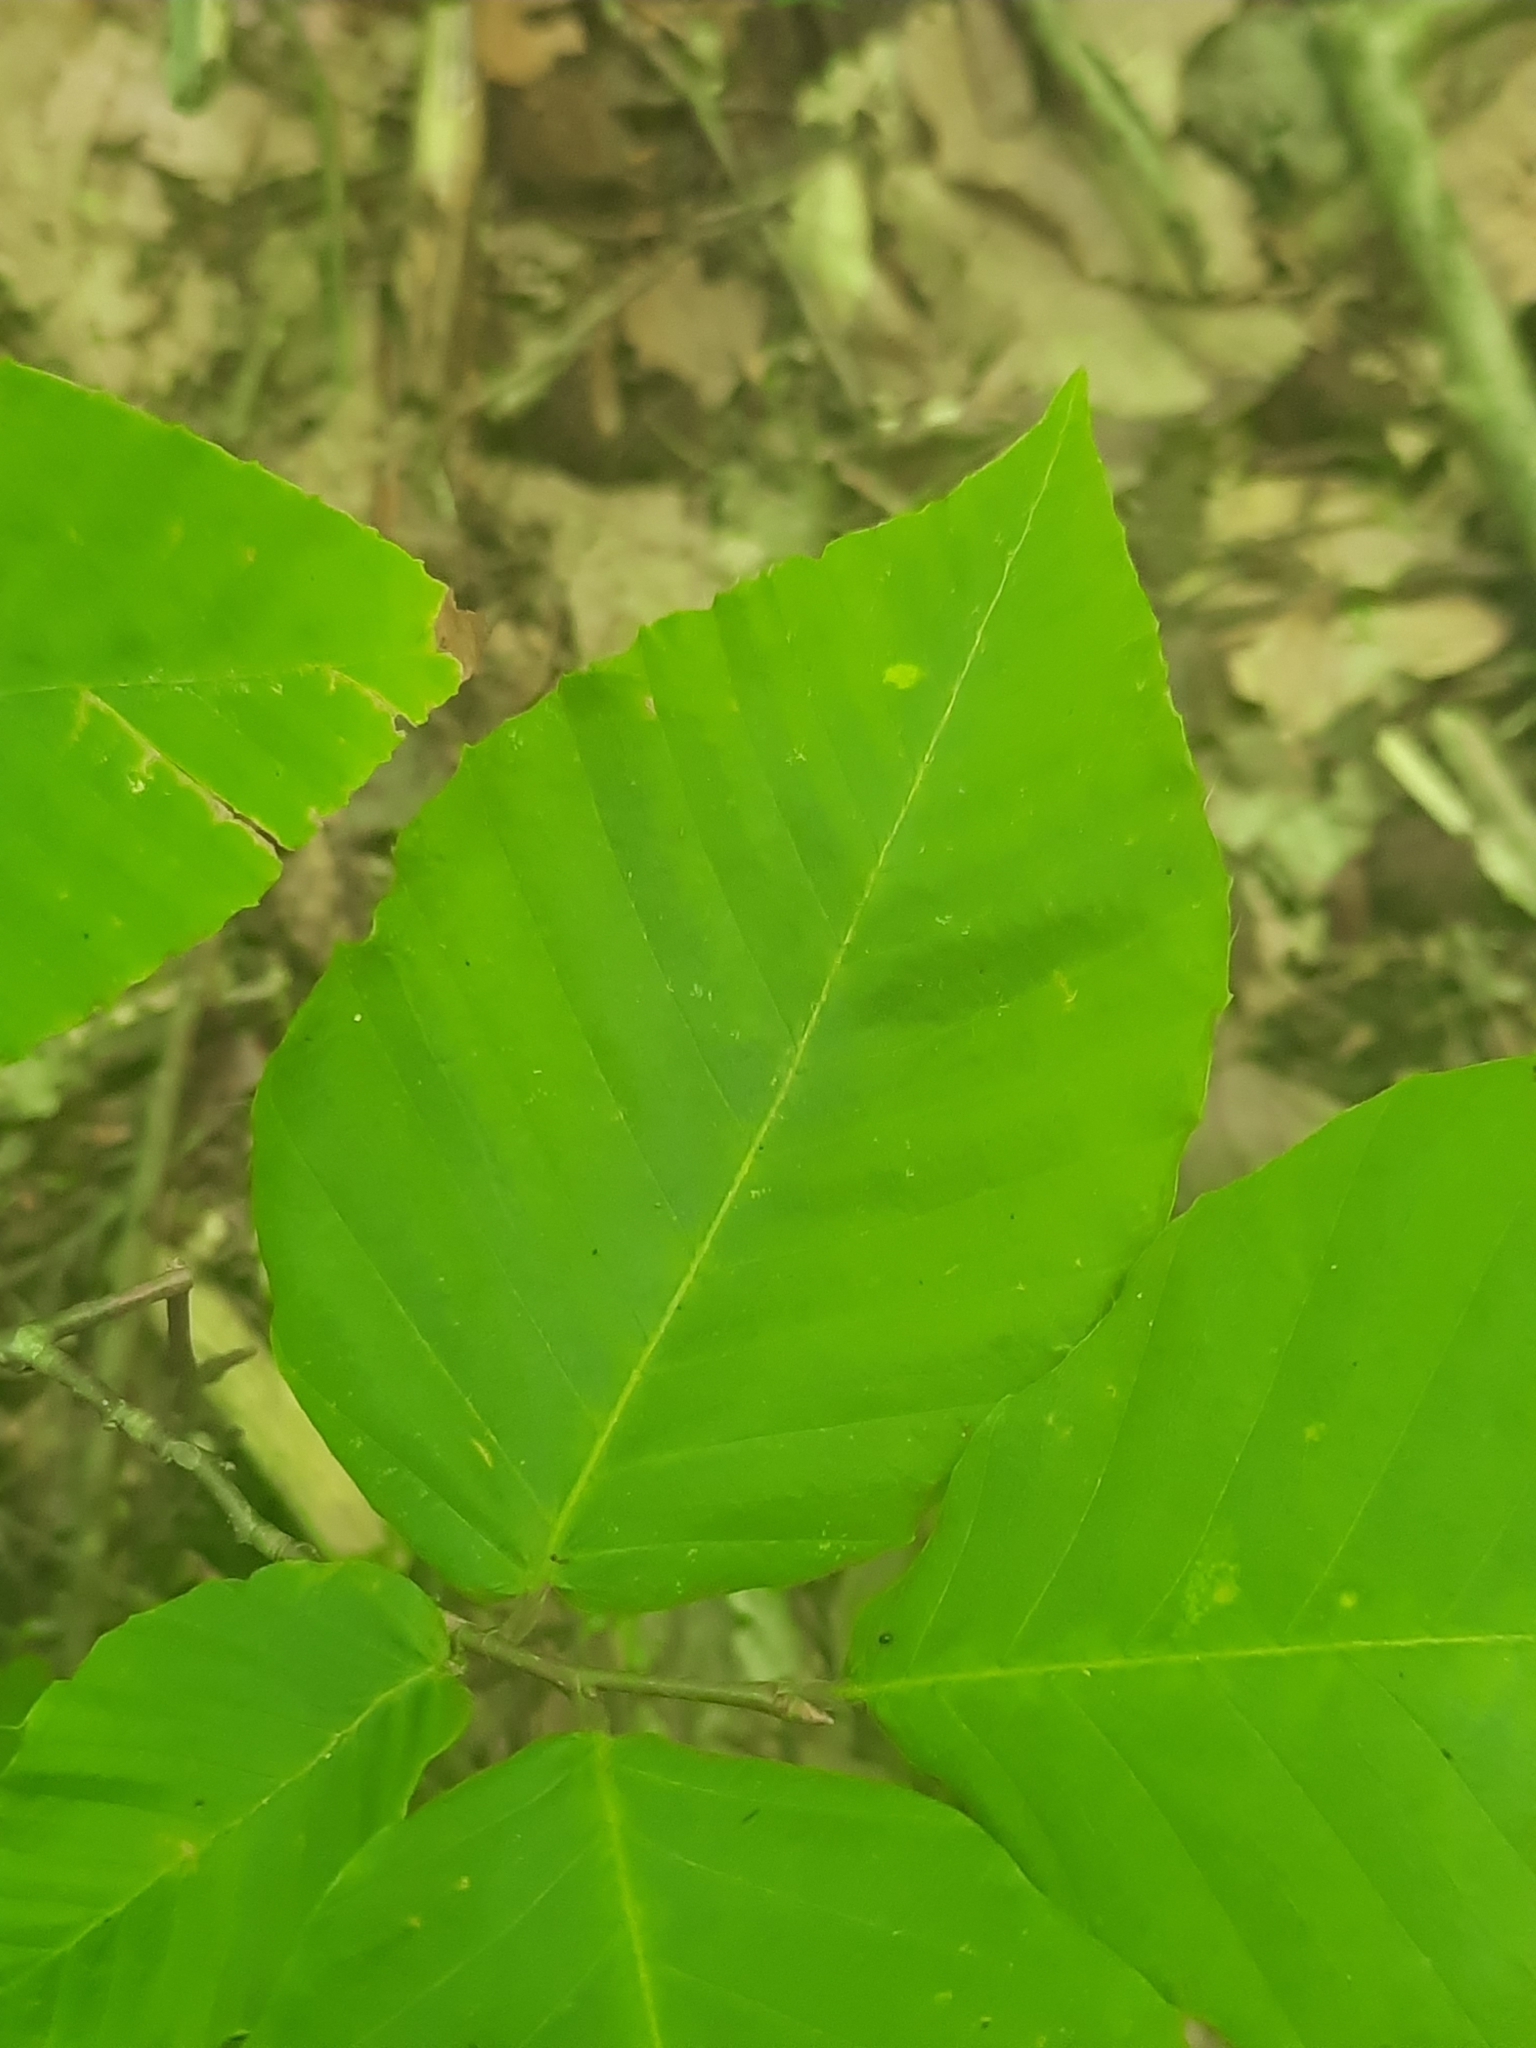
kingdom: Animalia
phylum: Nematoda
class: Chromadorea
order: Rhabditida
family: Anguinidae
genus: Litylenchus
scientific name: Litylenchus crenatae
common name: Beech leaf disease
